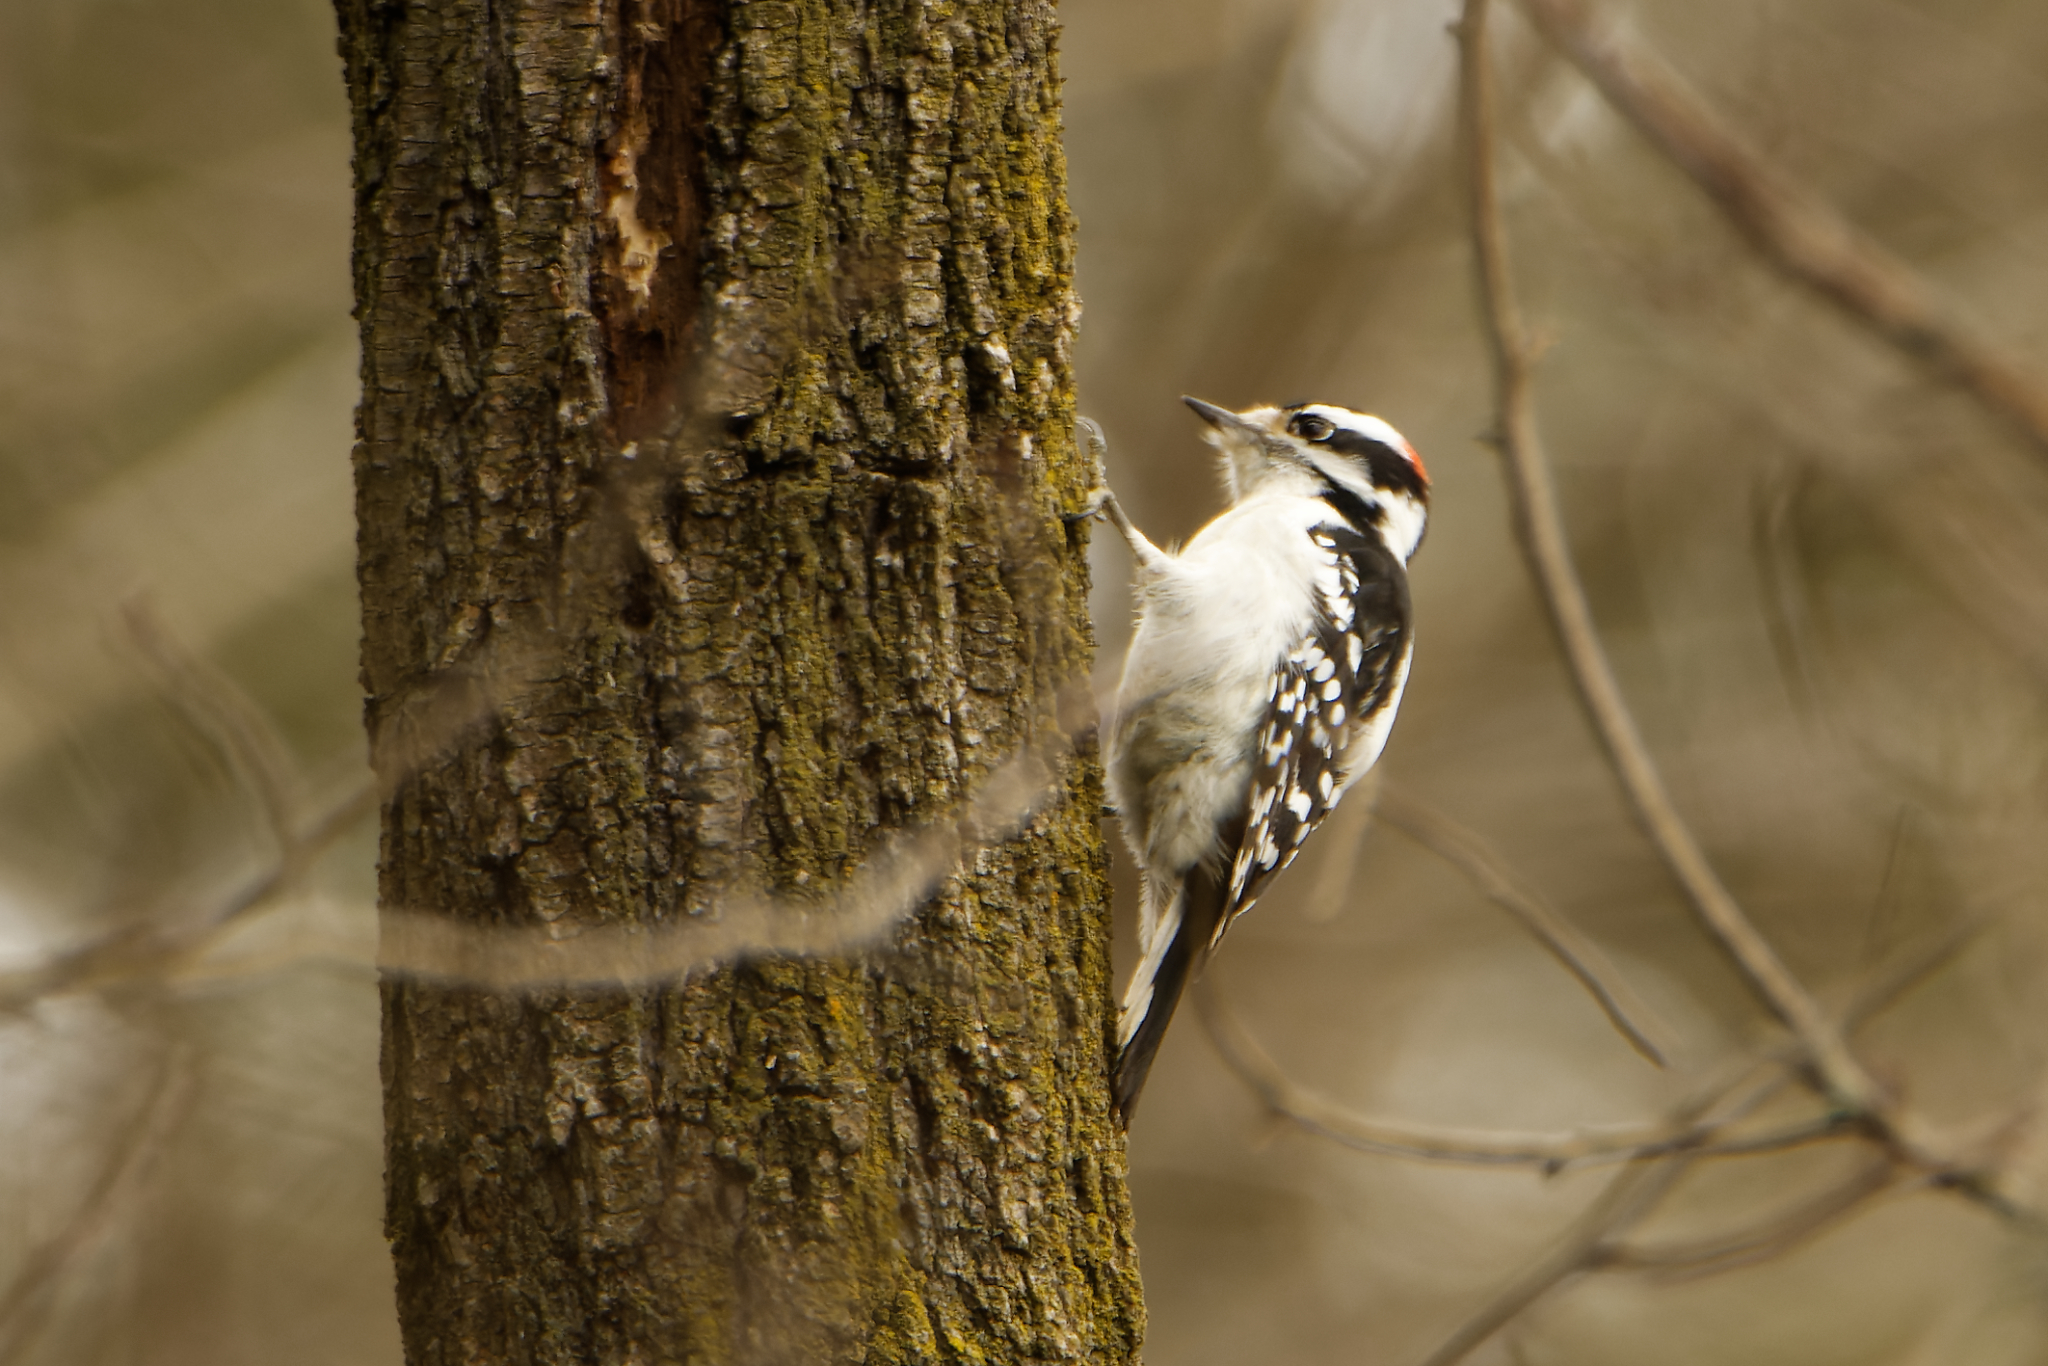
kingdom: Animalia
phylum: Chordata
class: Aves
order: Piciformes
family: Picidae
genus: Dryobates
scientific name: Dryobates pubescens
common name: Downy woodpecker
